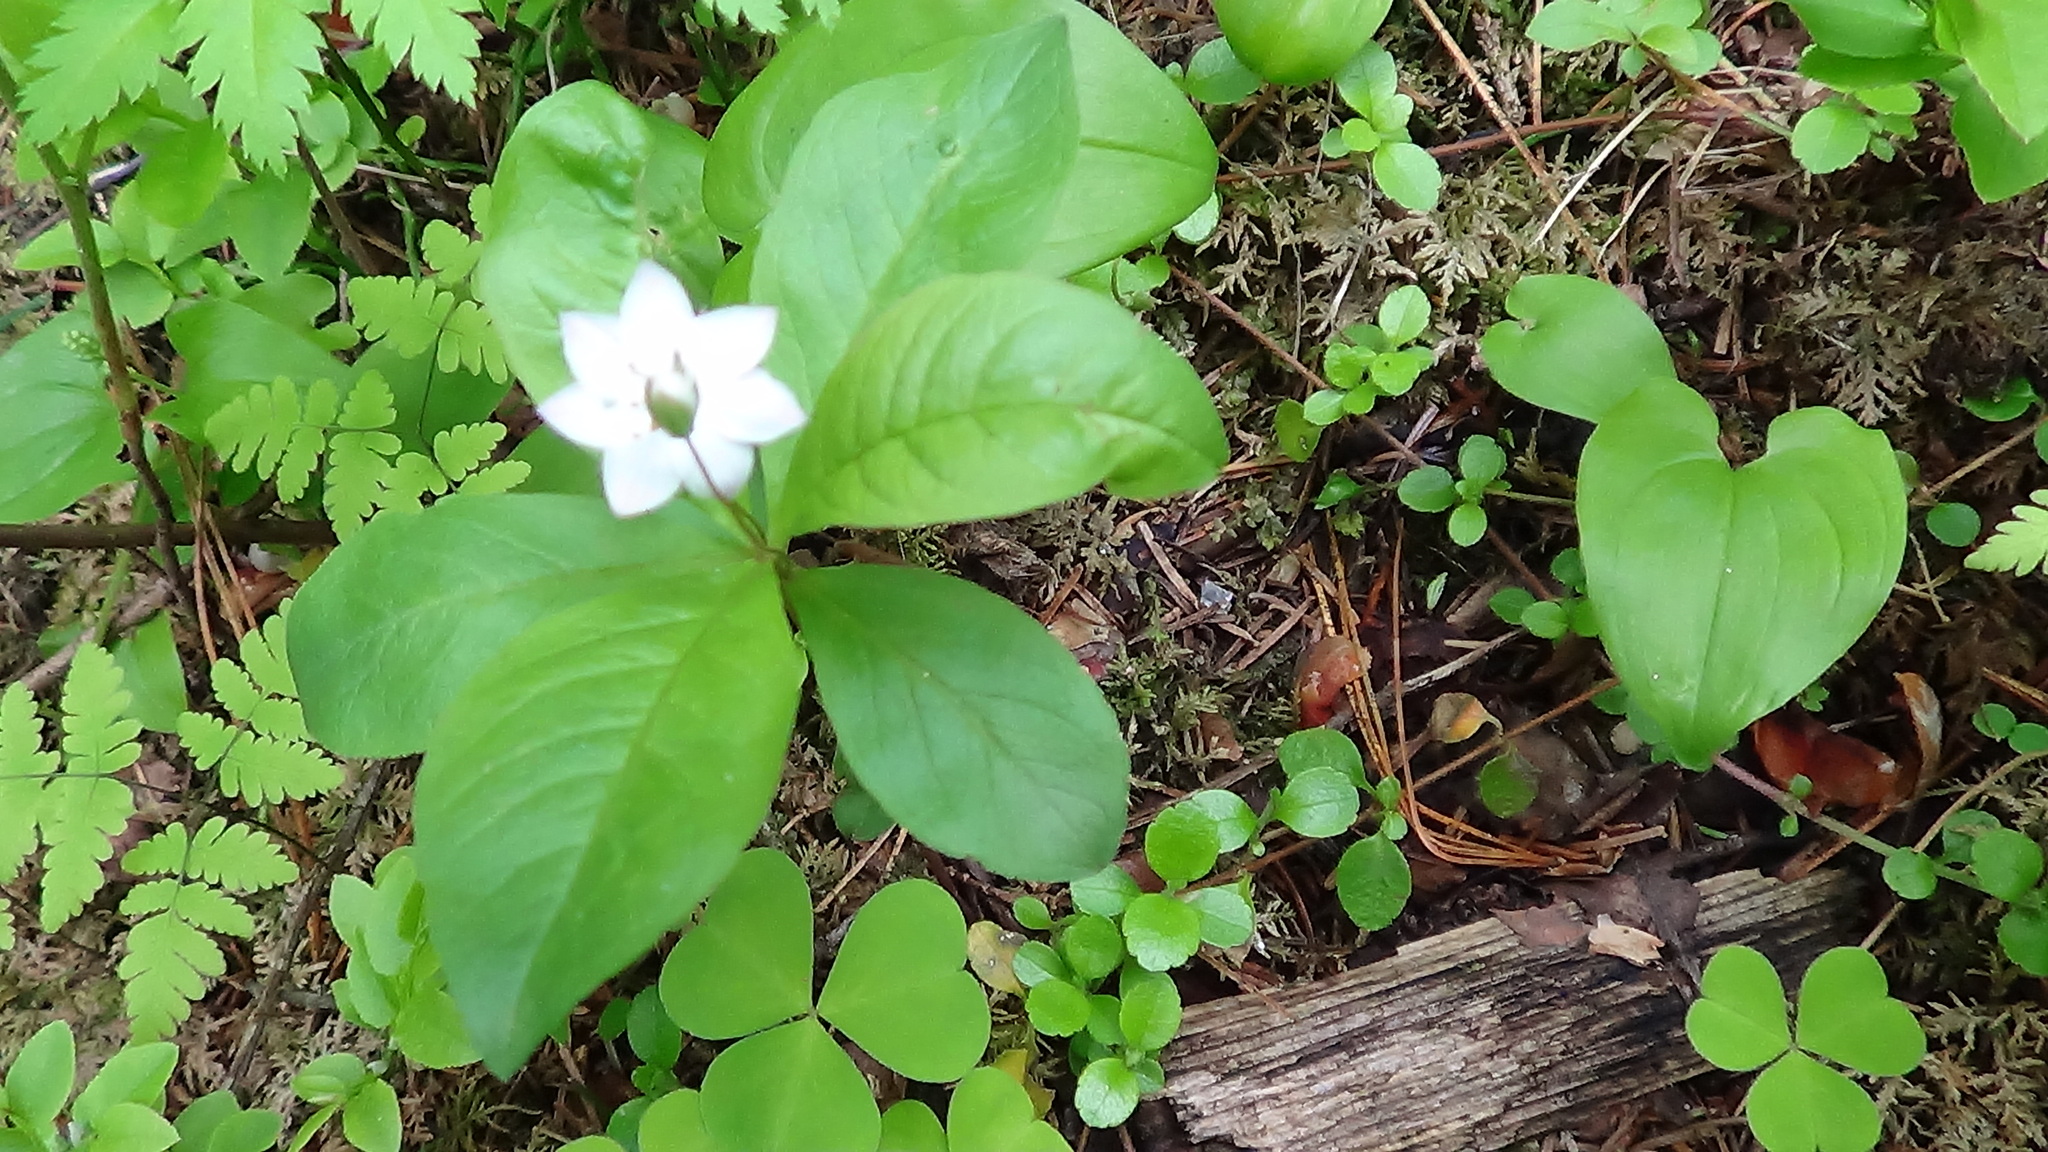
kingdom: Plantae
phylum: Tracheophyta
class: Magnoliopsida
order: Ericales
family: Primulaceae
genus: Lysimachia
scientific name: Lysimachia europaea
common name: Arctic starflower
